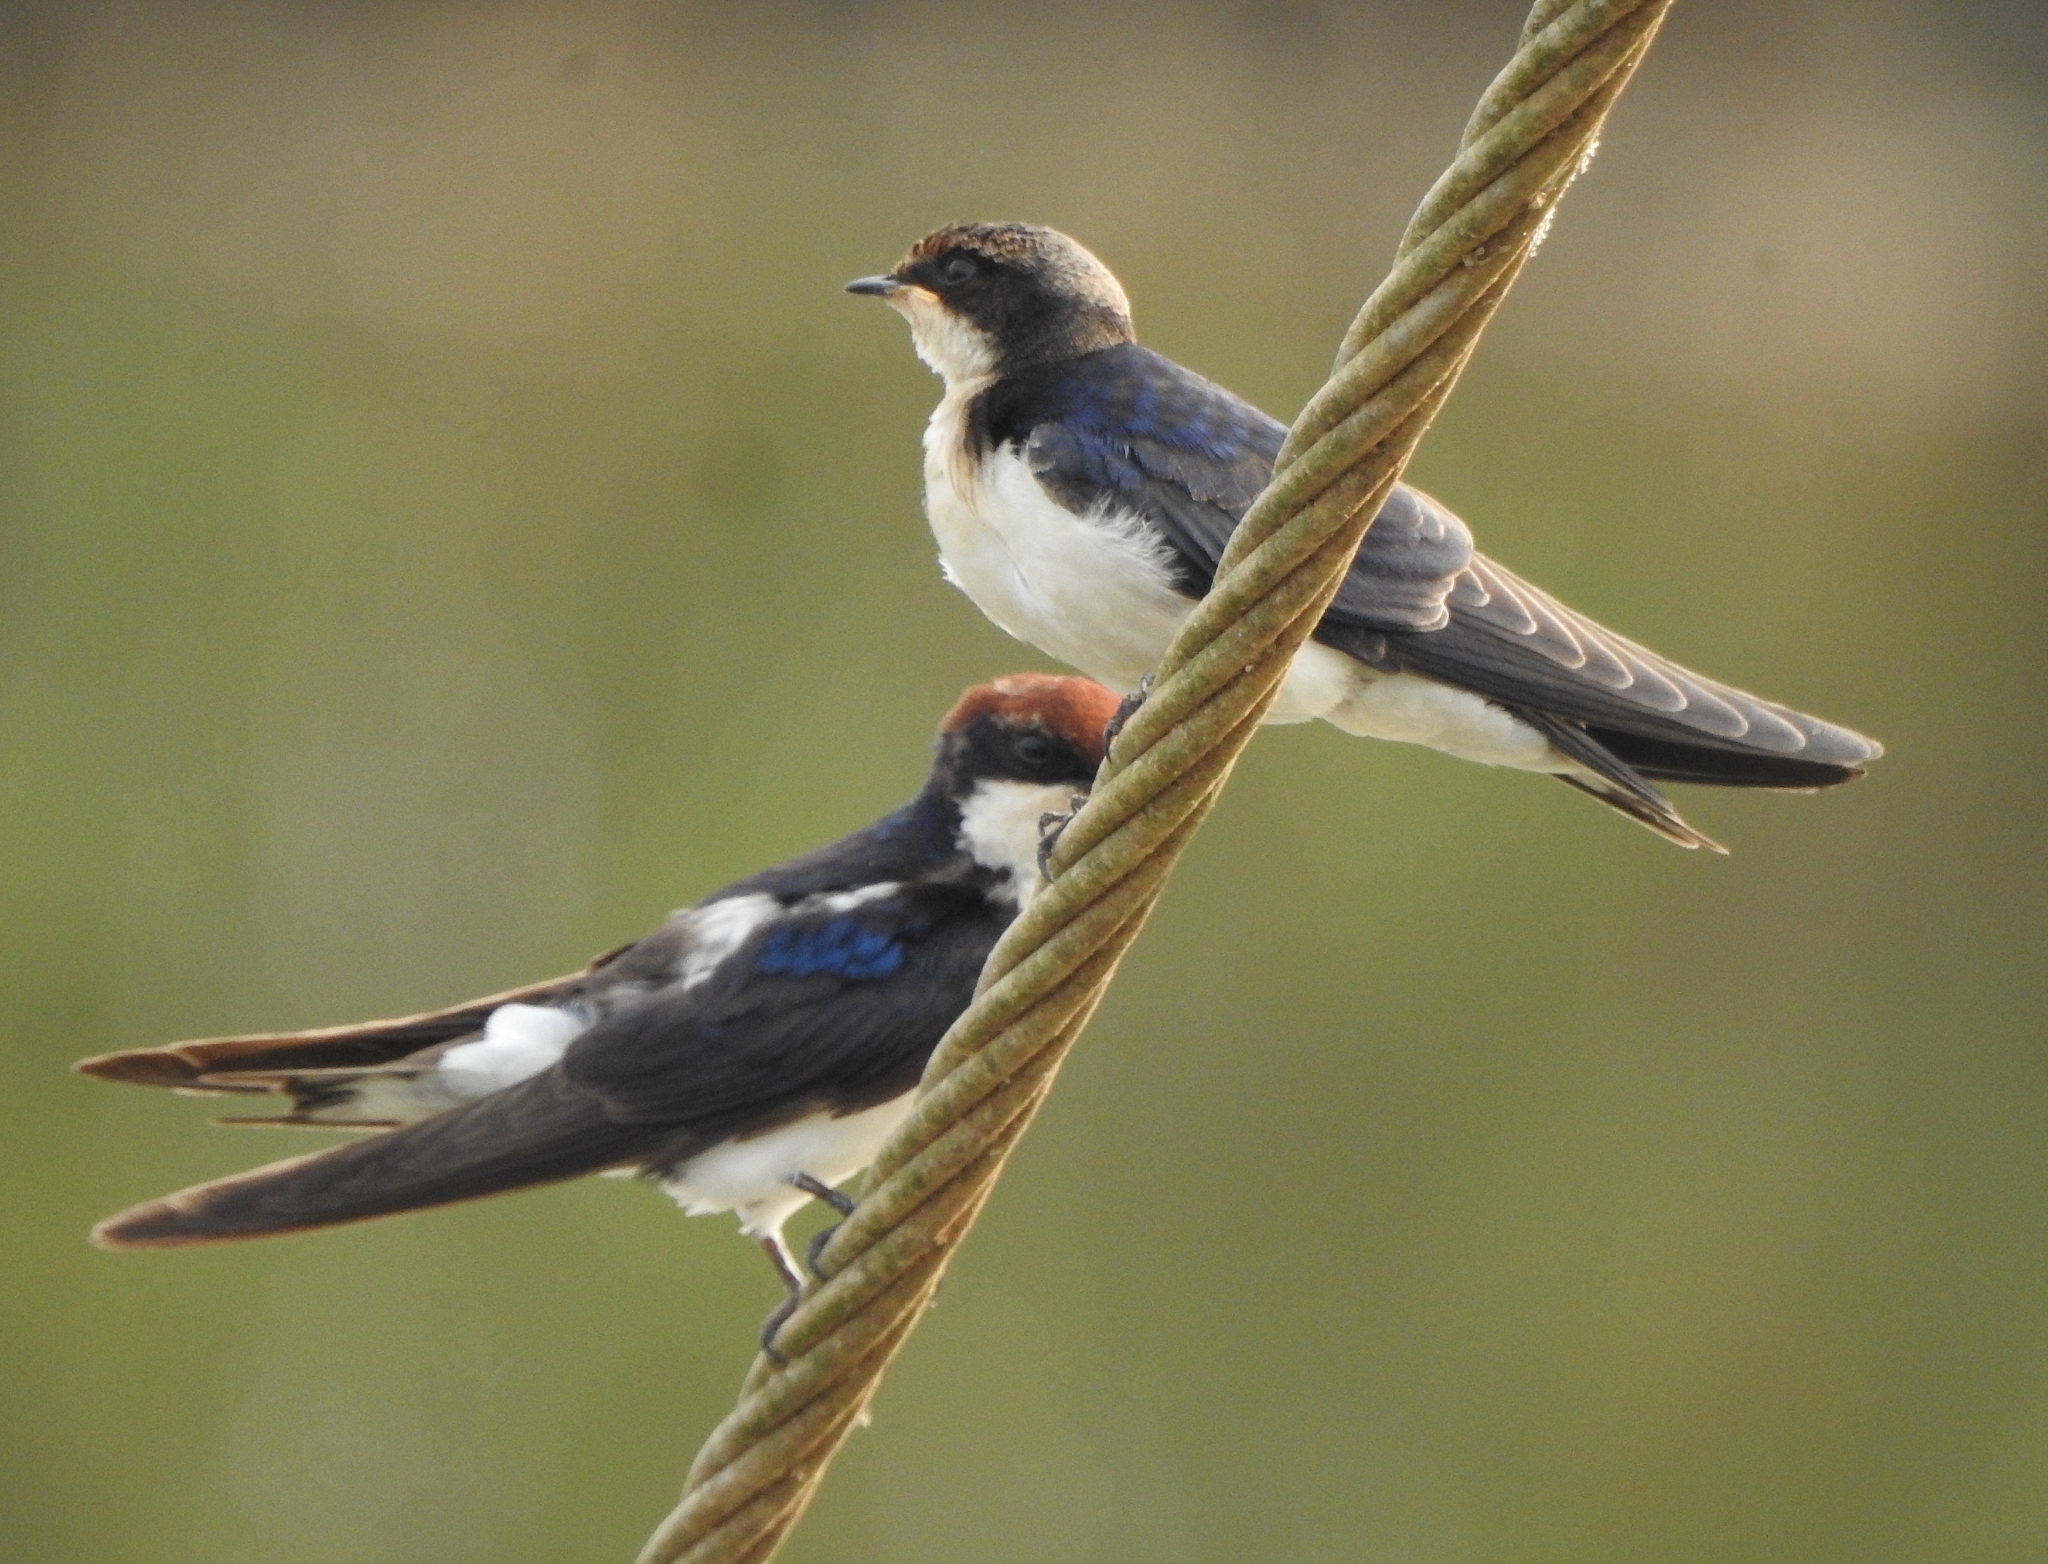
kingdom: Animalia
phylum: Chordata
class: Aves
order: Passeriformes
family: Hirundinidae
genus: Hirundo
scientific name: Hirundo smithii
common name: Wire-tailed swallow
